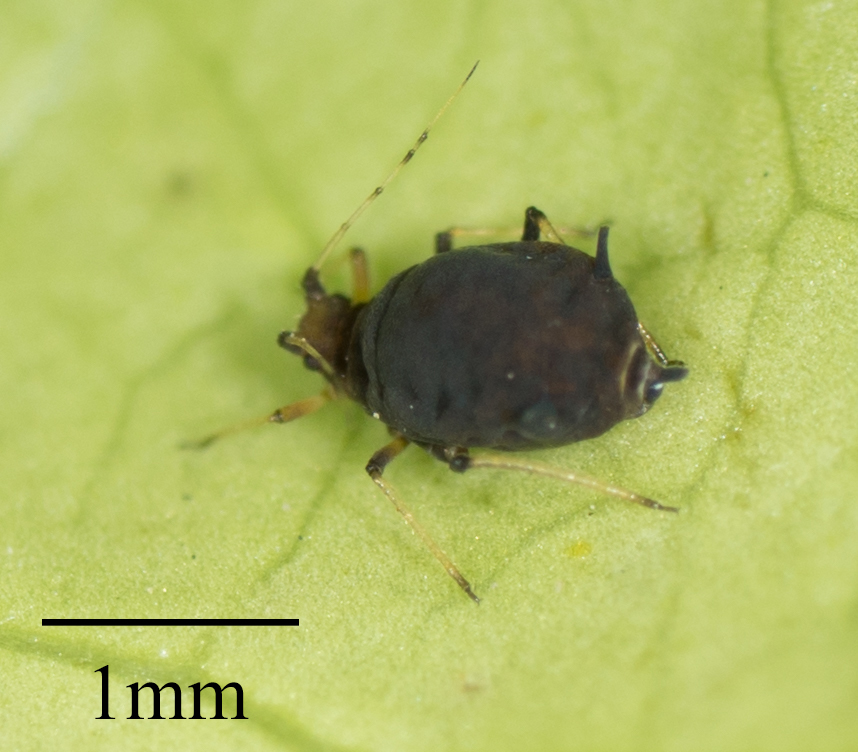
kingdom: Animalia
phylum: Arthropoda
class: Insecta
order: Hemiptera
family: Aphididae
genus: Aphis
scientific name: Aphis aurantii
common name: Black citrus aphid
